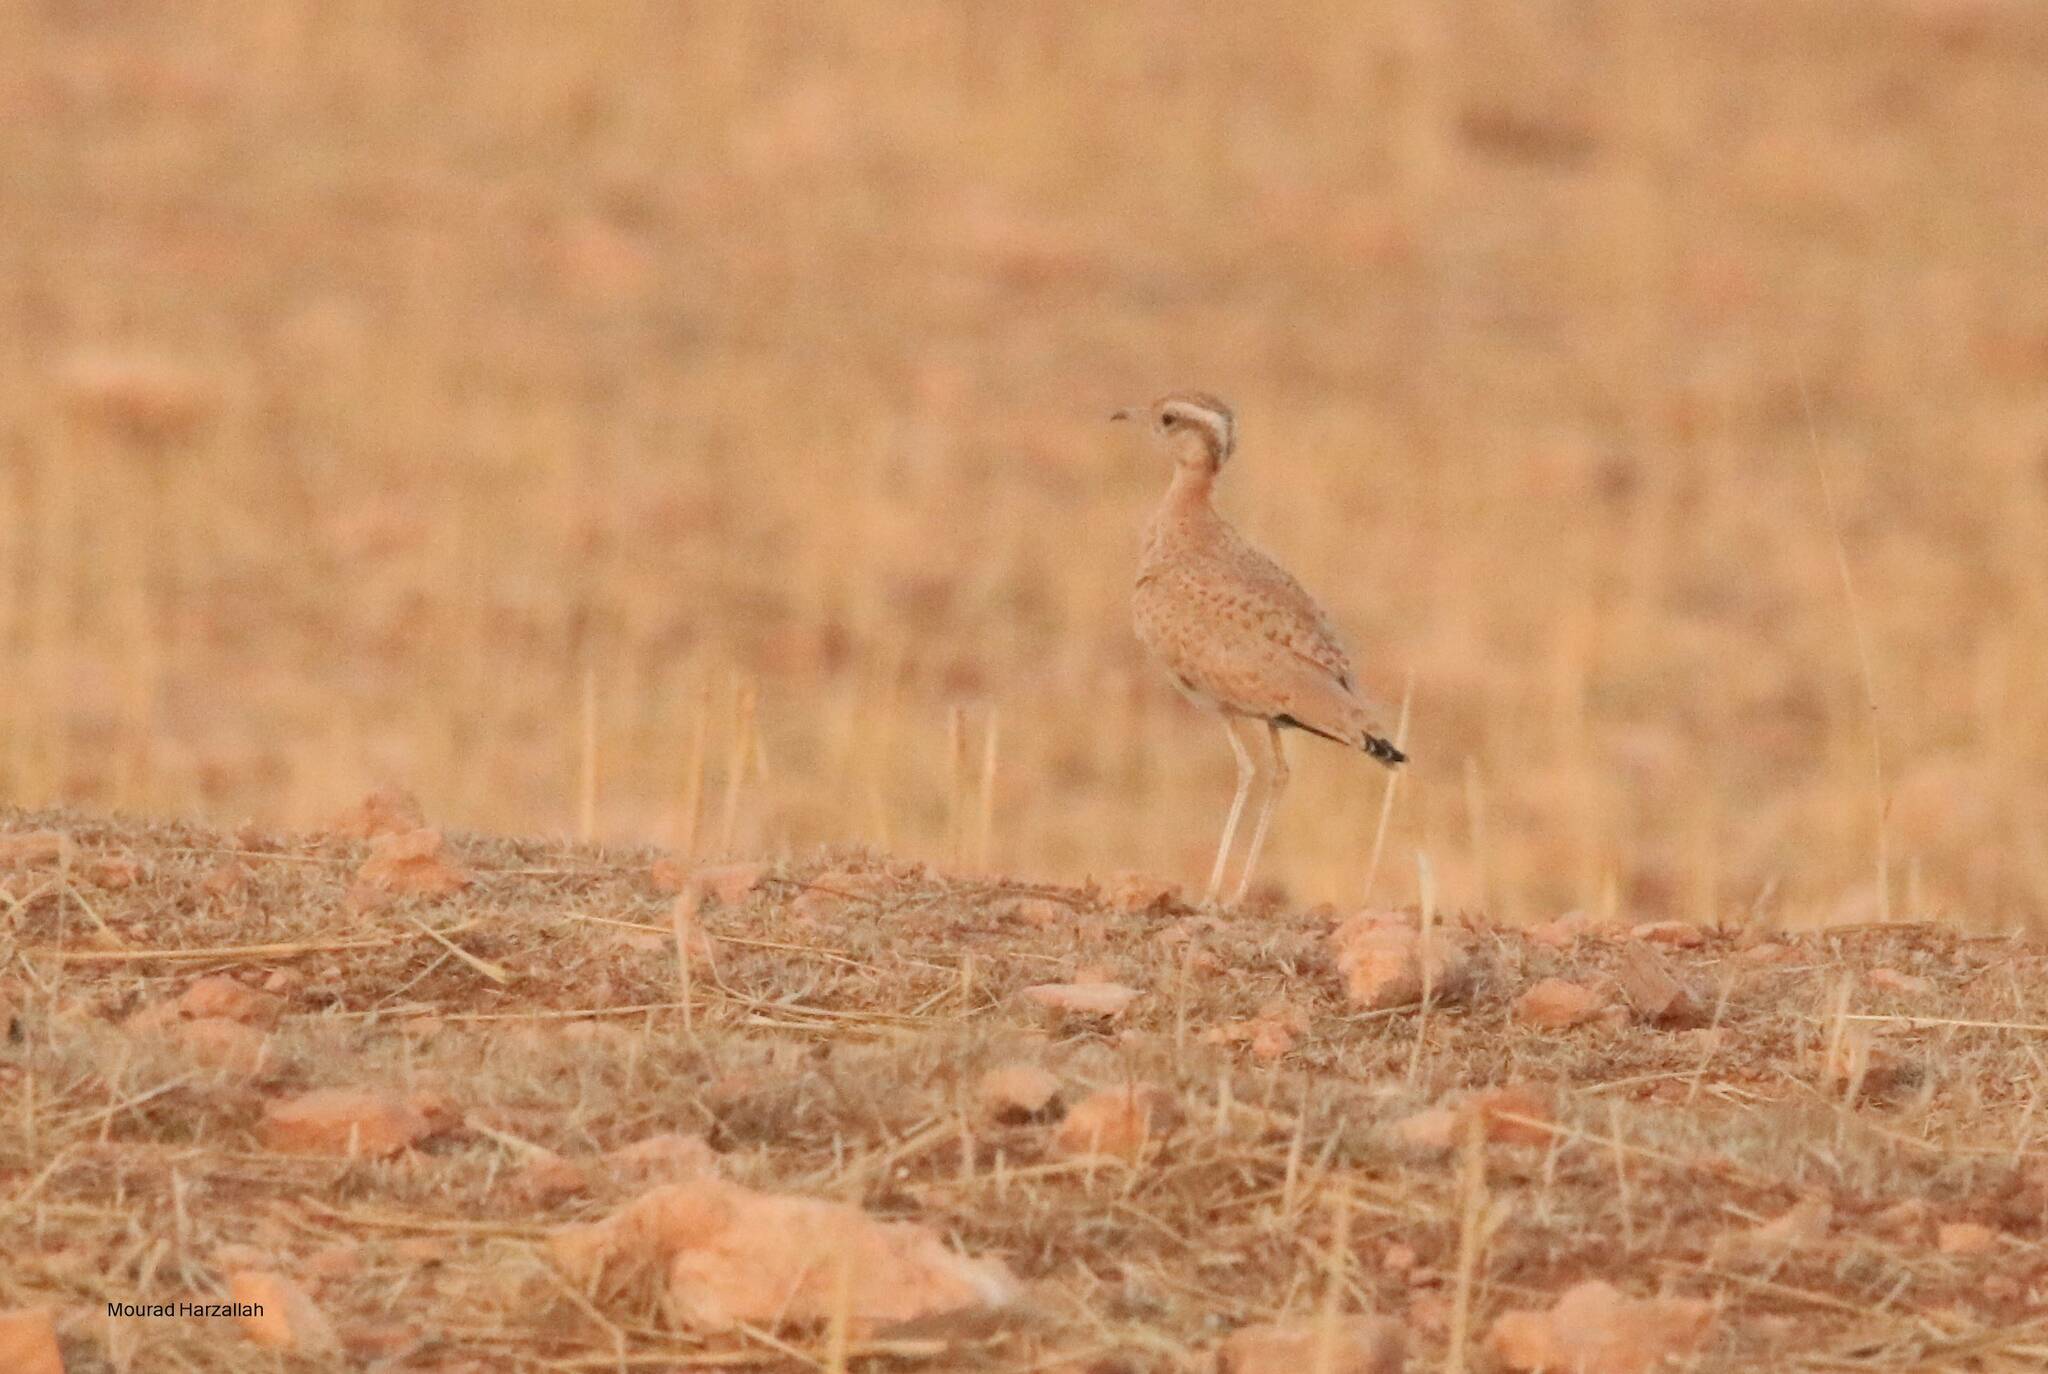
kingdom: Animalia
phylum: Chordata
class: Aves
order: Charadriiformes
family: Glareolidae
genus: Cursorius
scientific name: Cursorius cursor
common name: Cream-colored courser
